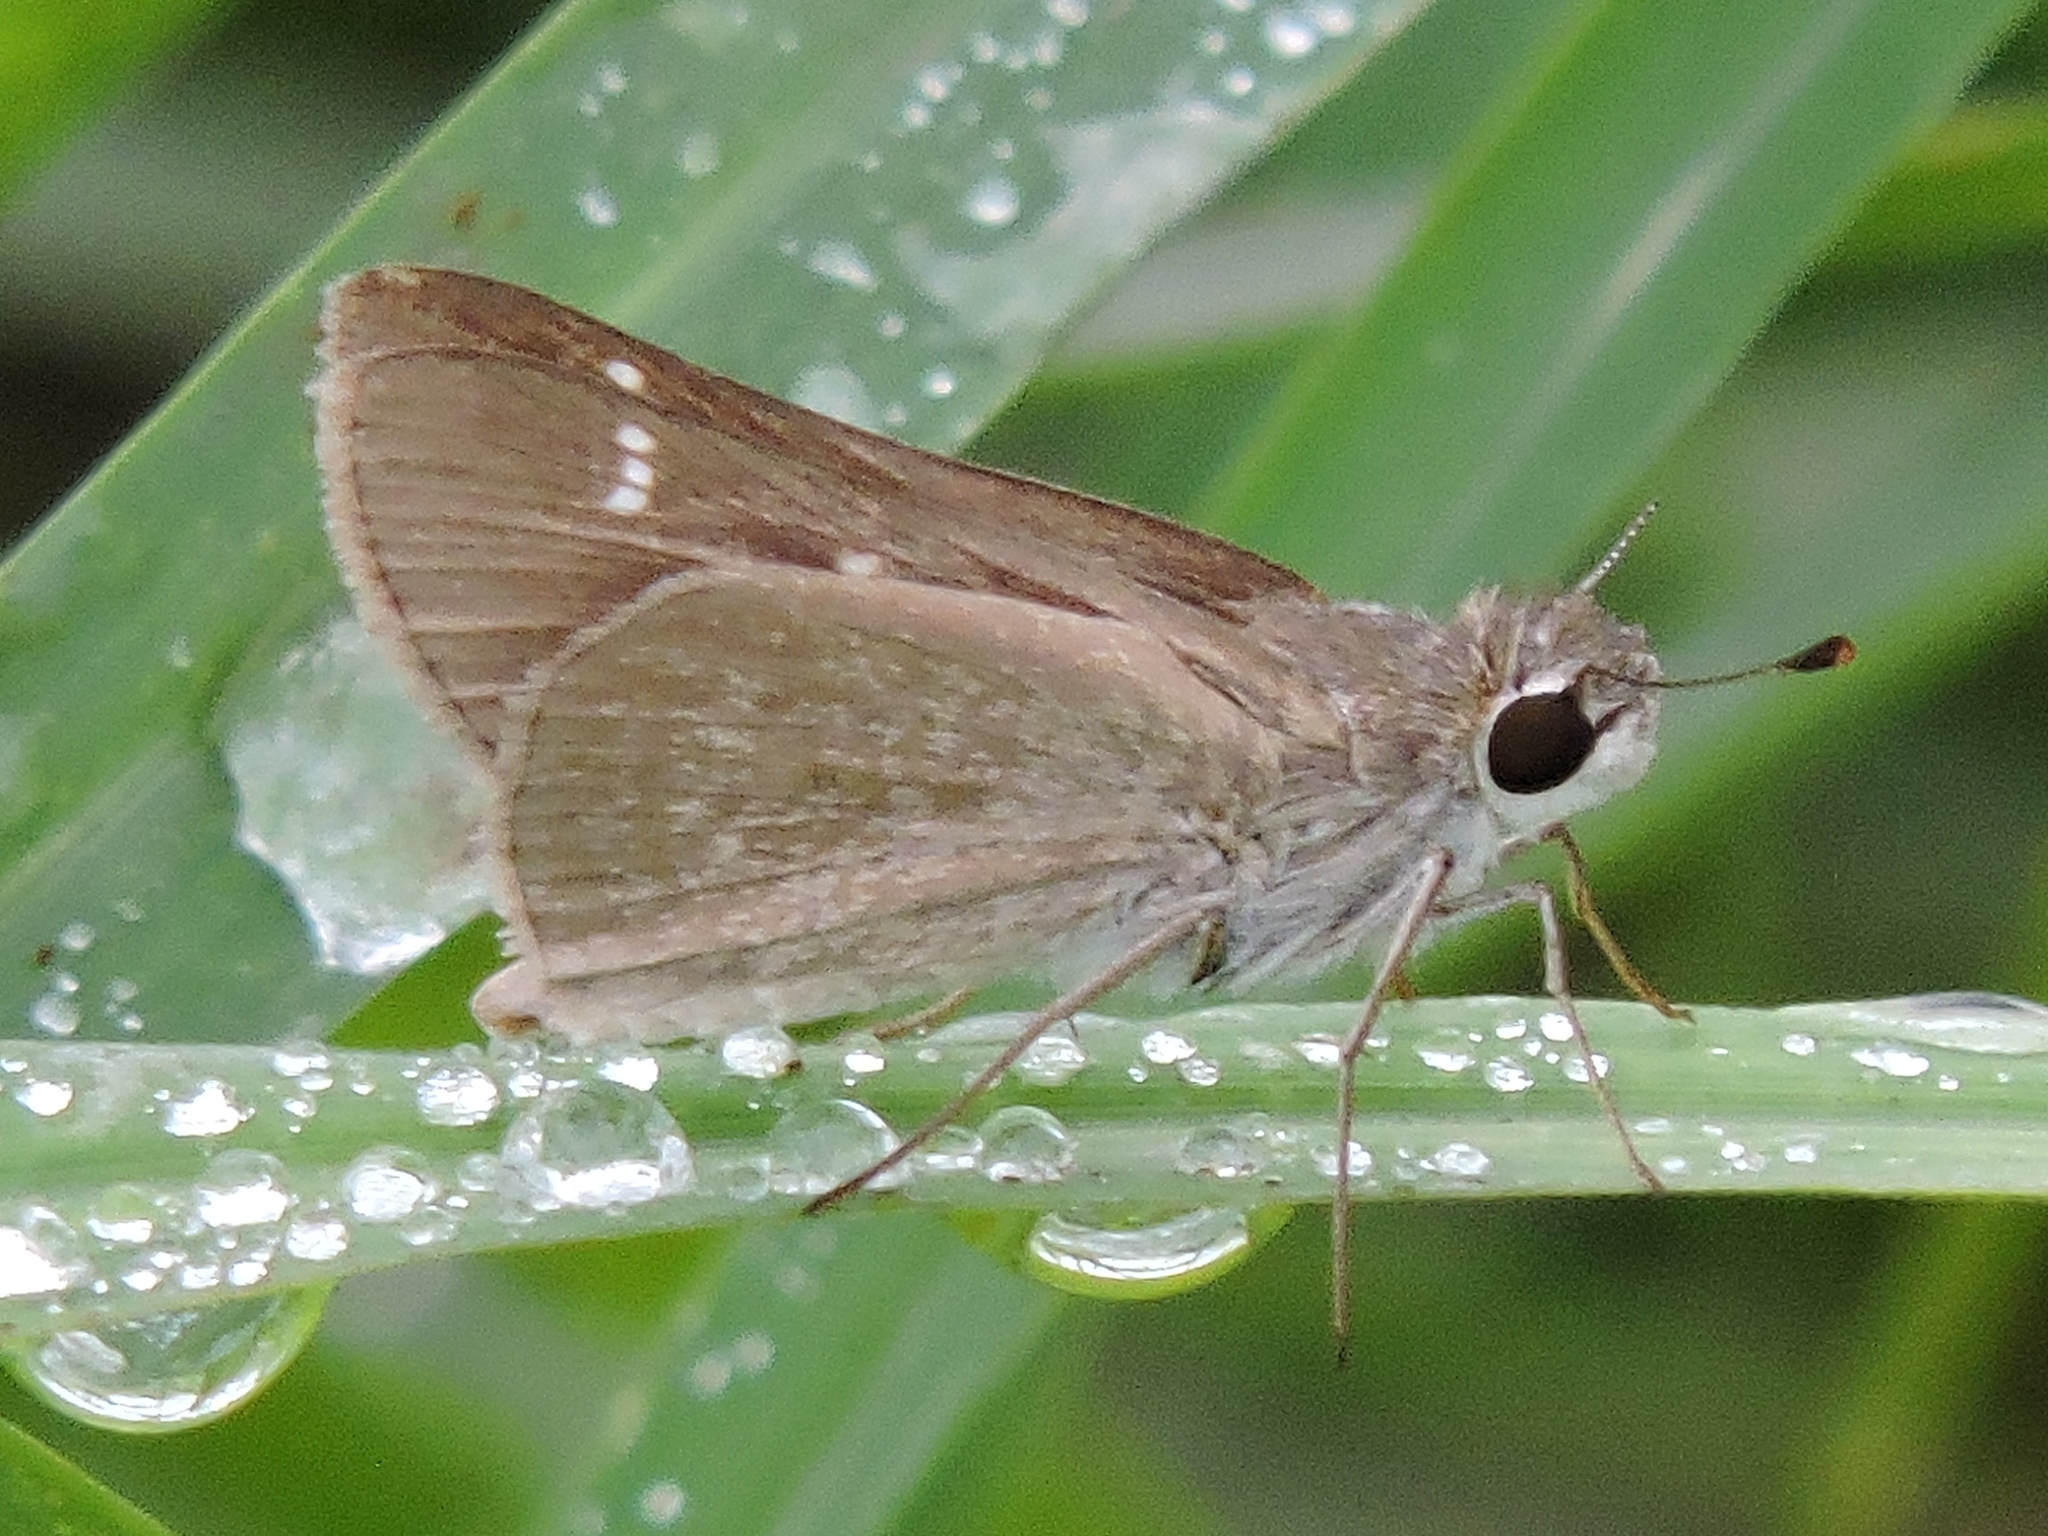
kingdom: Animalia
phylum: Arthropoda
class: Insecta
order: Lepidoptera
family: Hesperiidae
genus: Lerodea
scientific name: Lerodea eufala
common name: Eufala skipper
